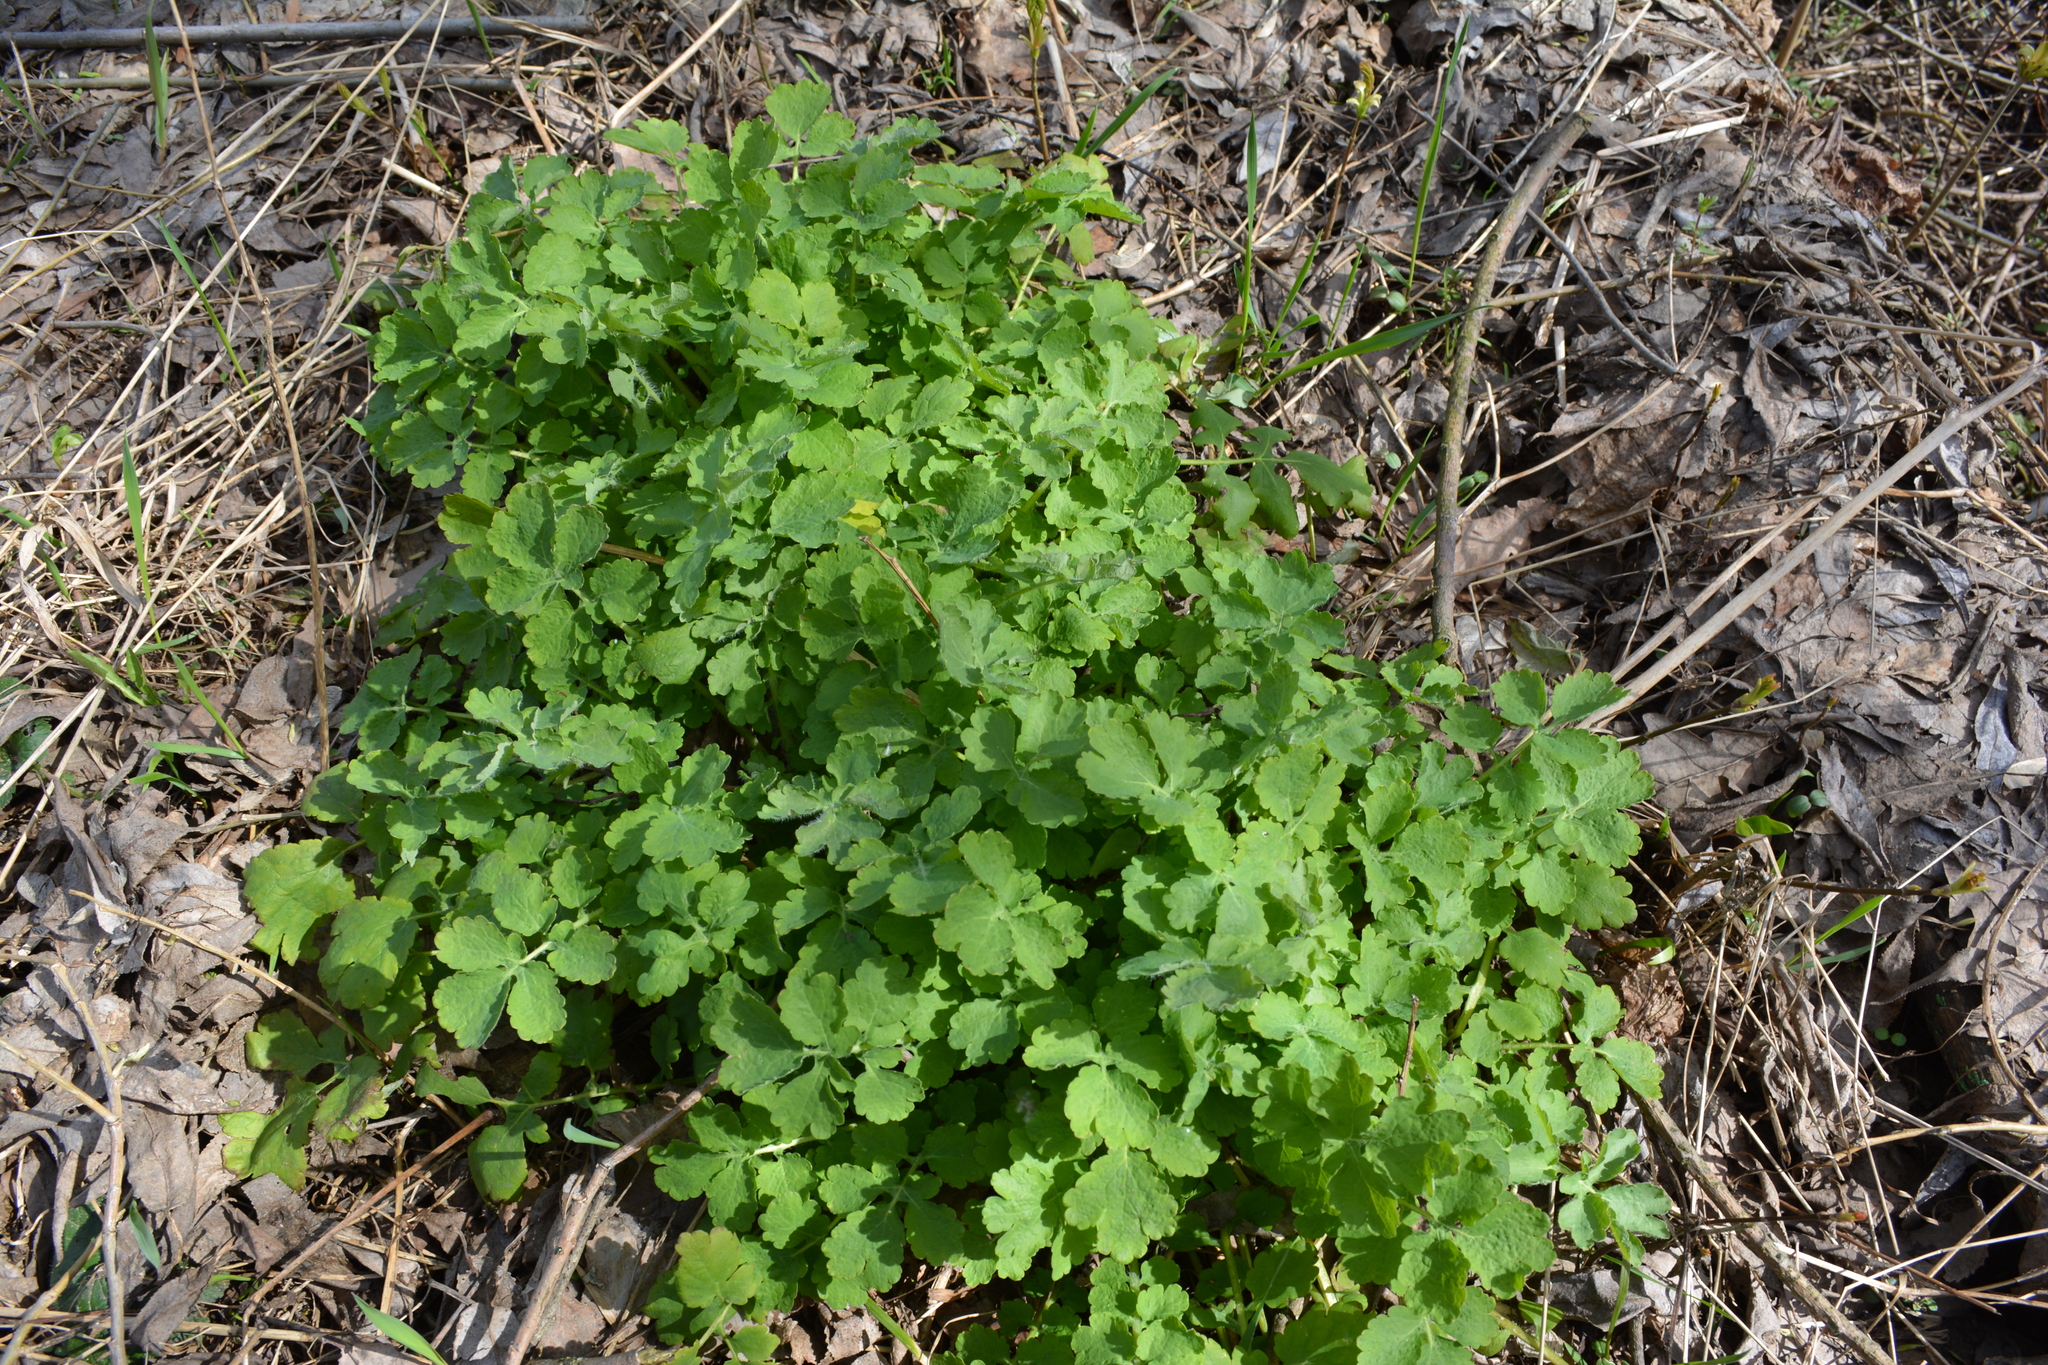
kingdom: Plantae
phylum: Tracheophyta
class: Magnoliopsida
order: Ranunculales
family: Papaveraceae
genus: Chelidonium
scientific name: Chelidonium majus
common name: Greater celandine
